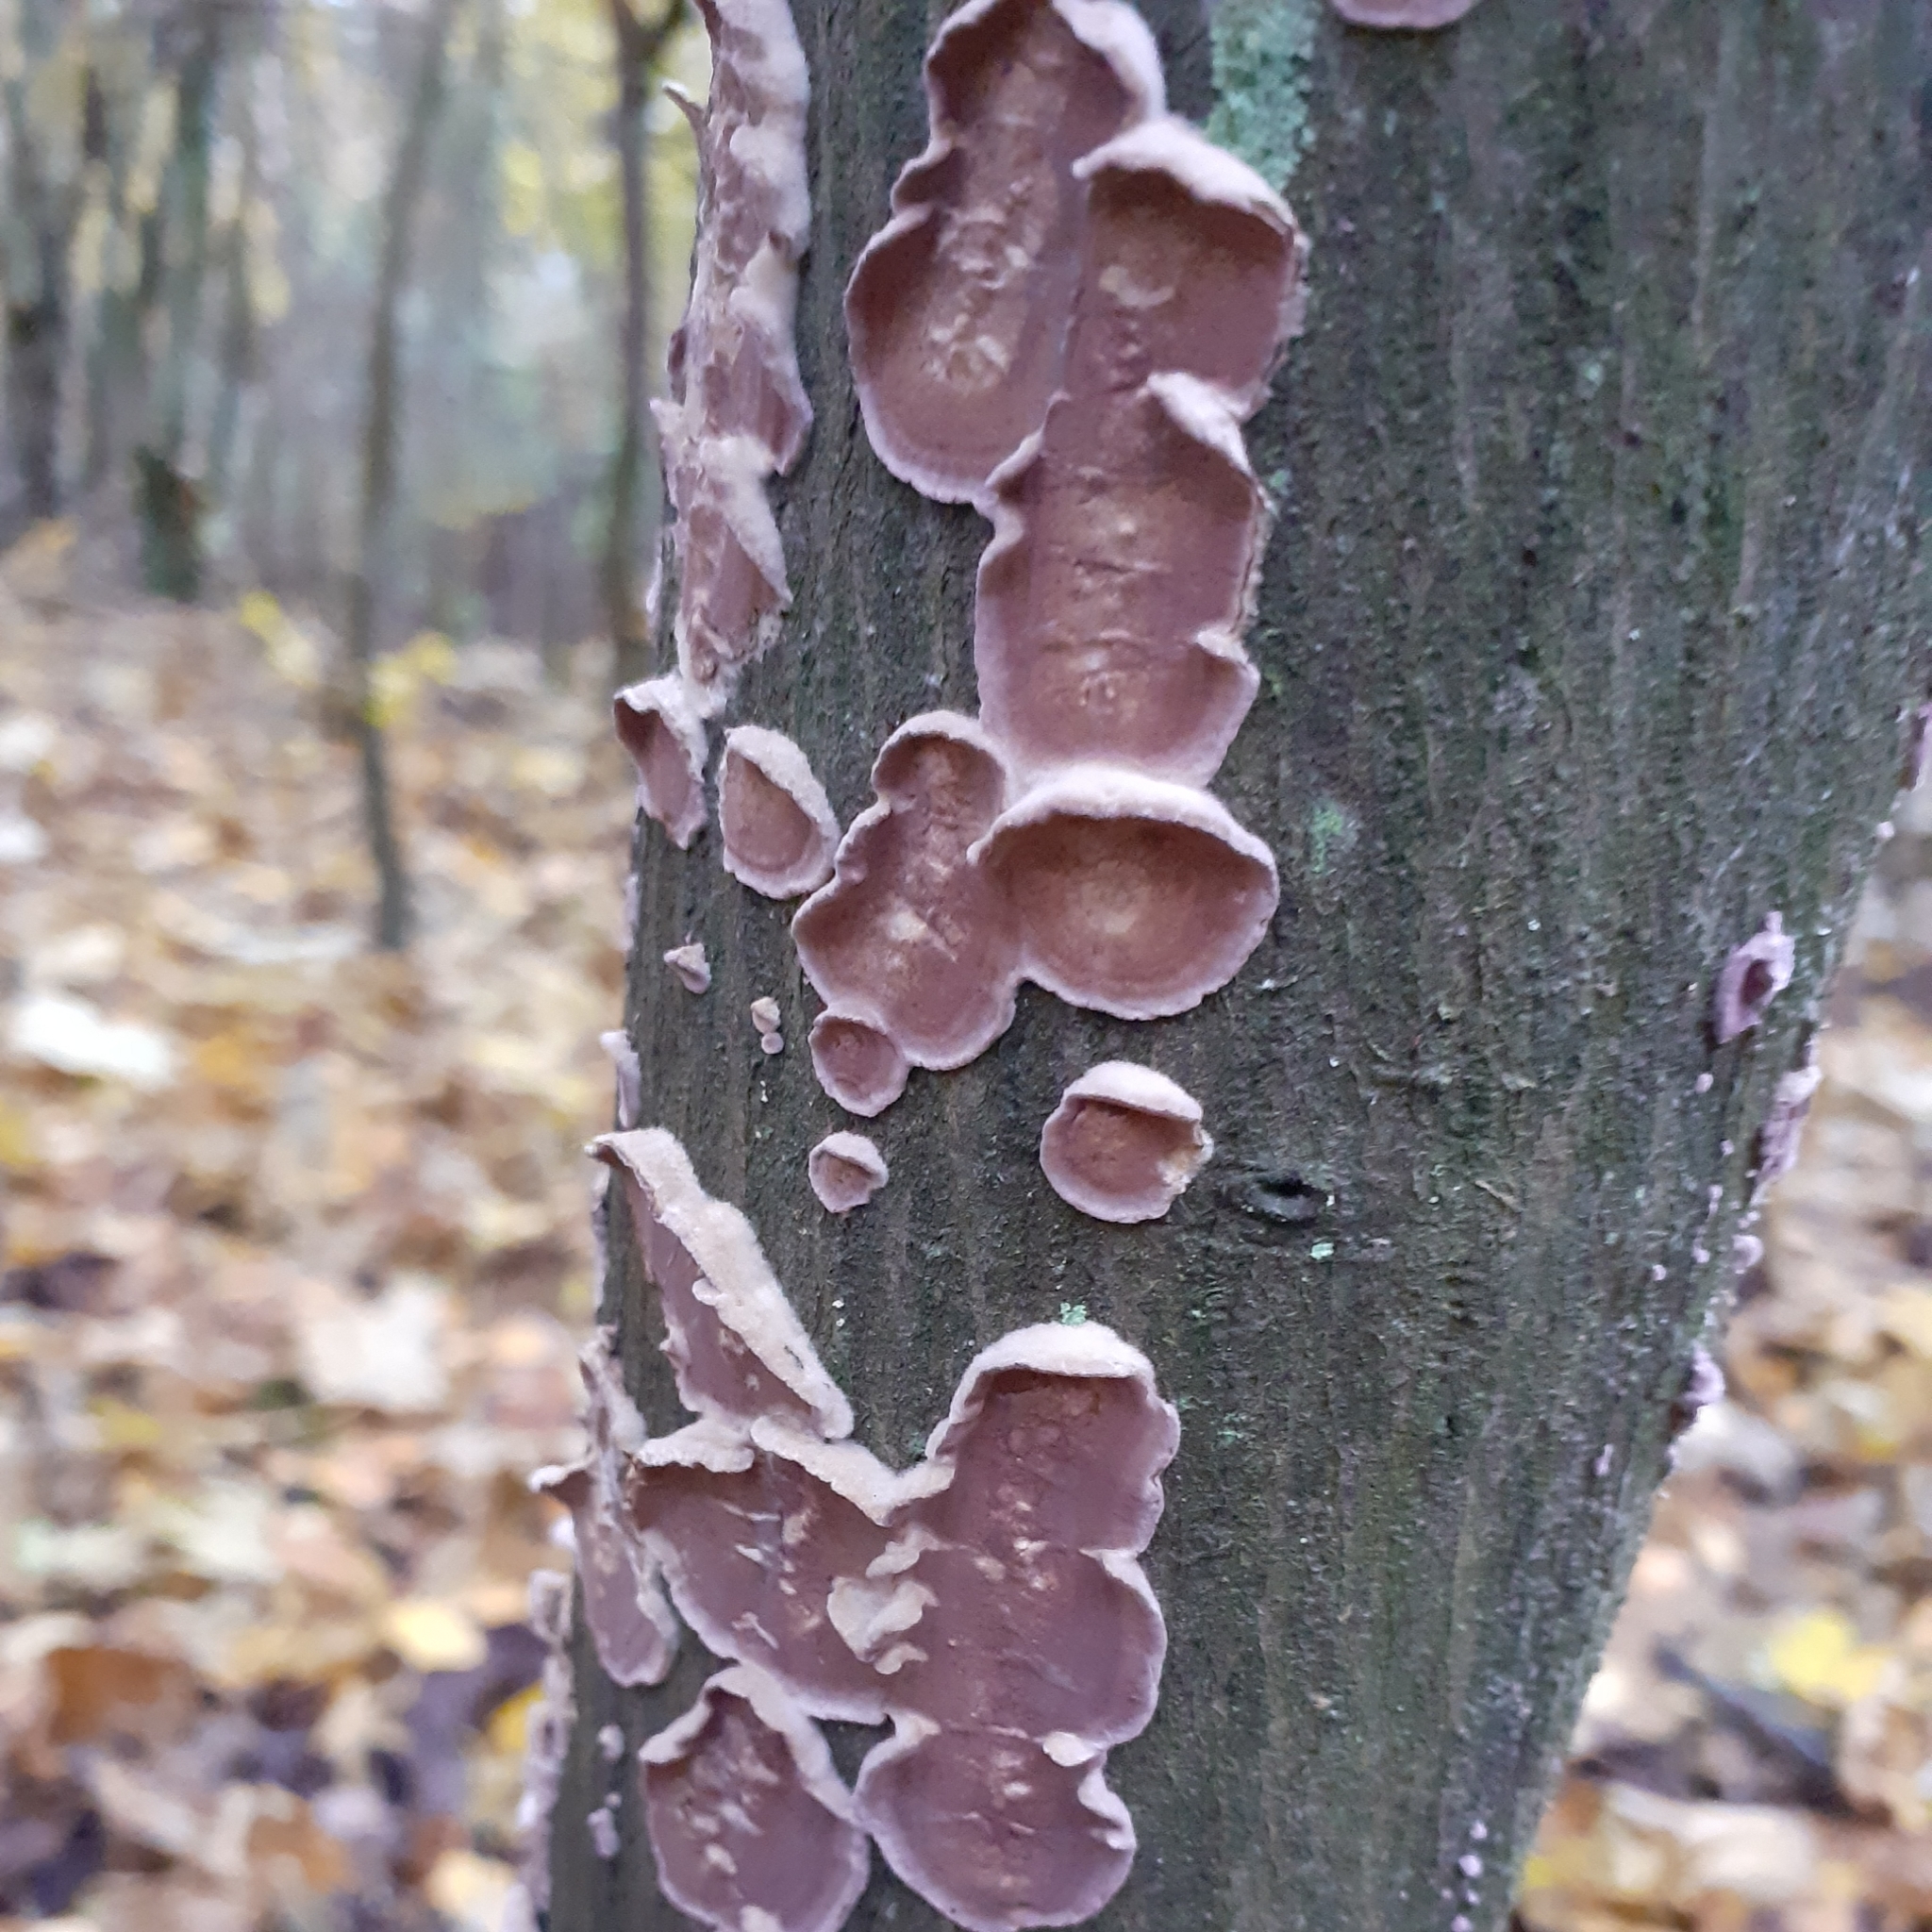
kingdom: Fungi
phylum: Basidiomycota
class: Agaricomycetes
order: Agaricales
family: Cyphellaceae
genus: Chondrostereum
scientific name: Chondrostereum purpureum
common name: Silver leaf disease
